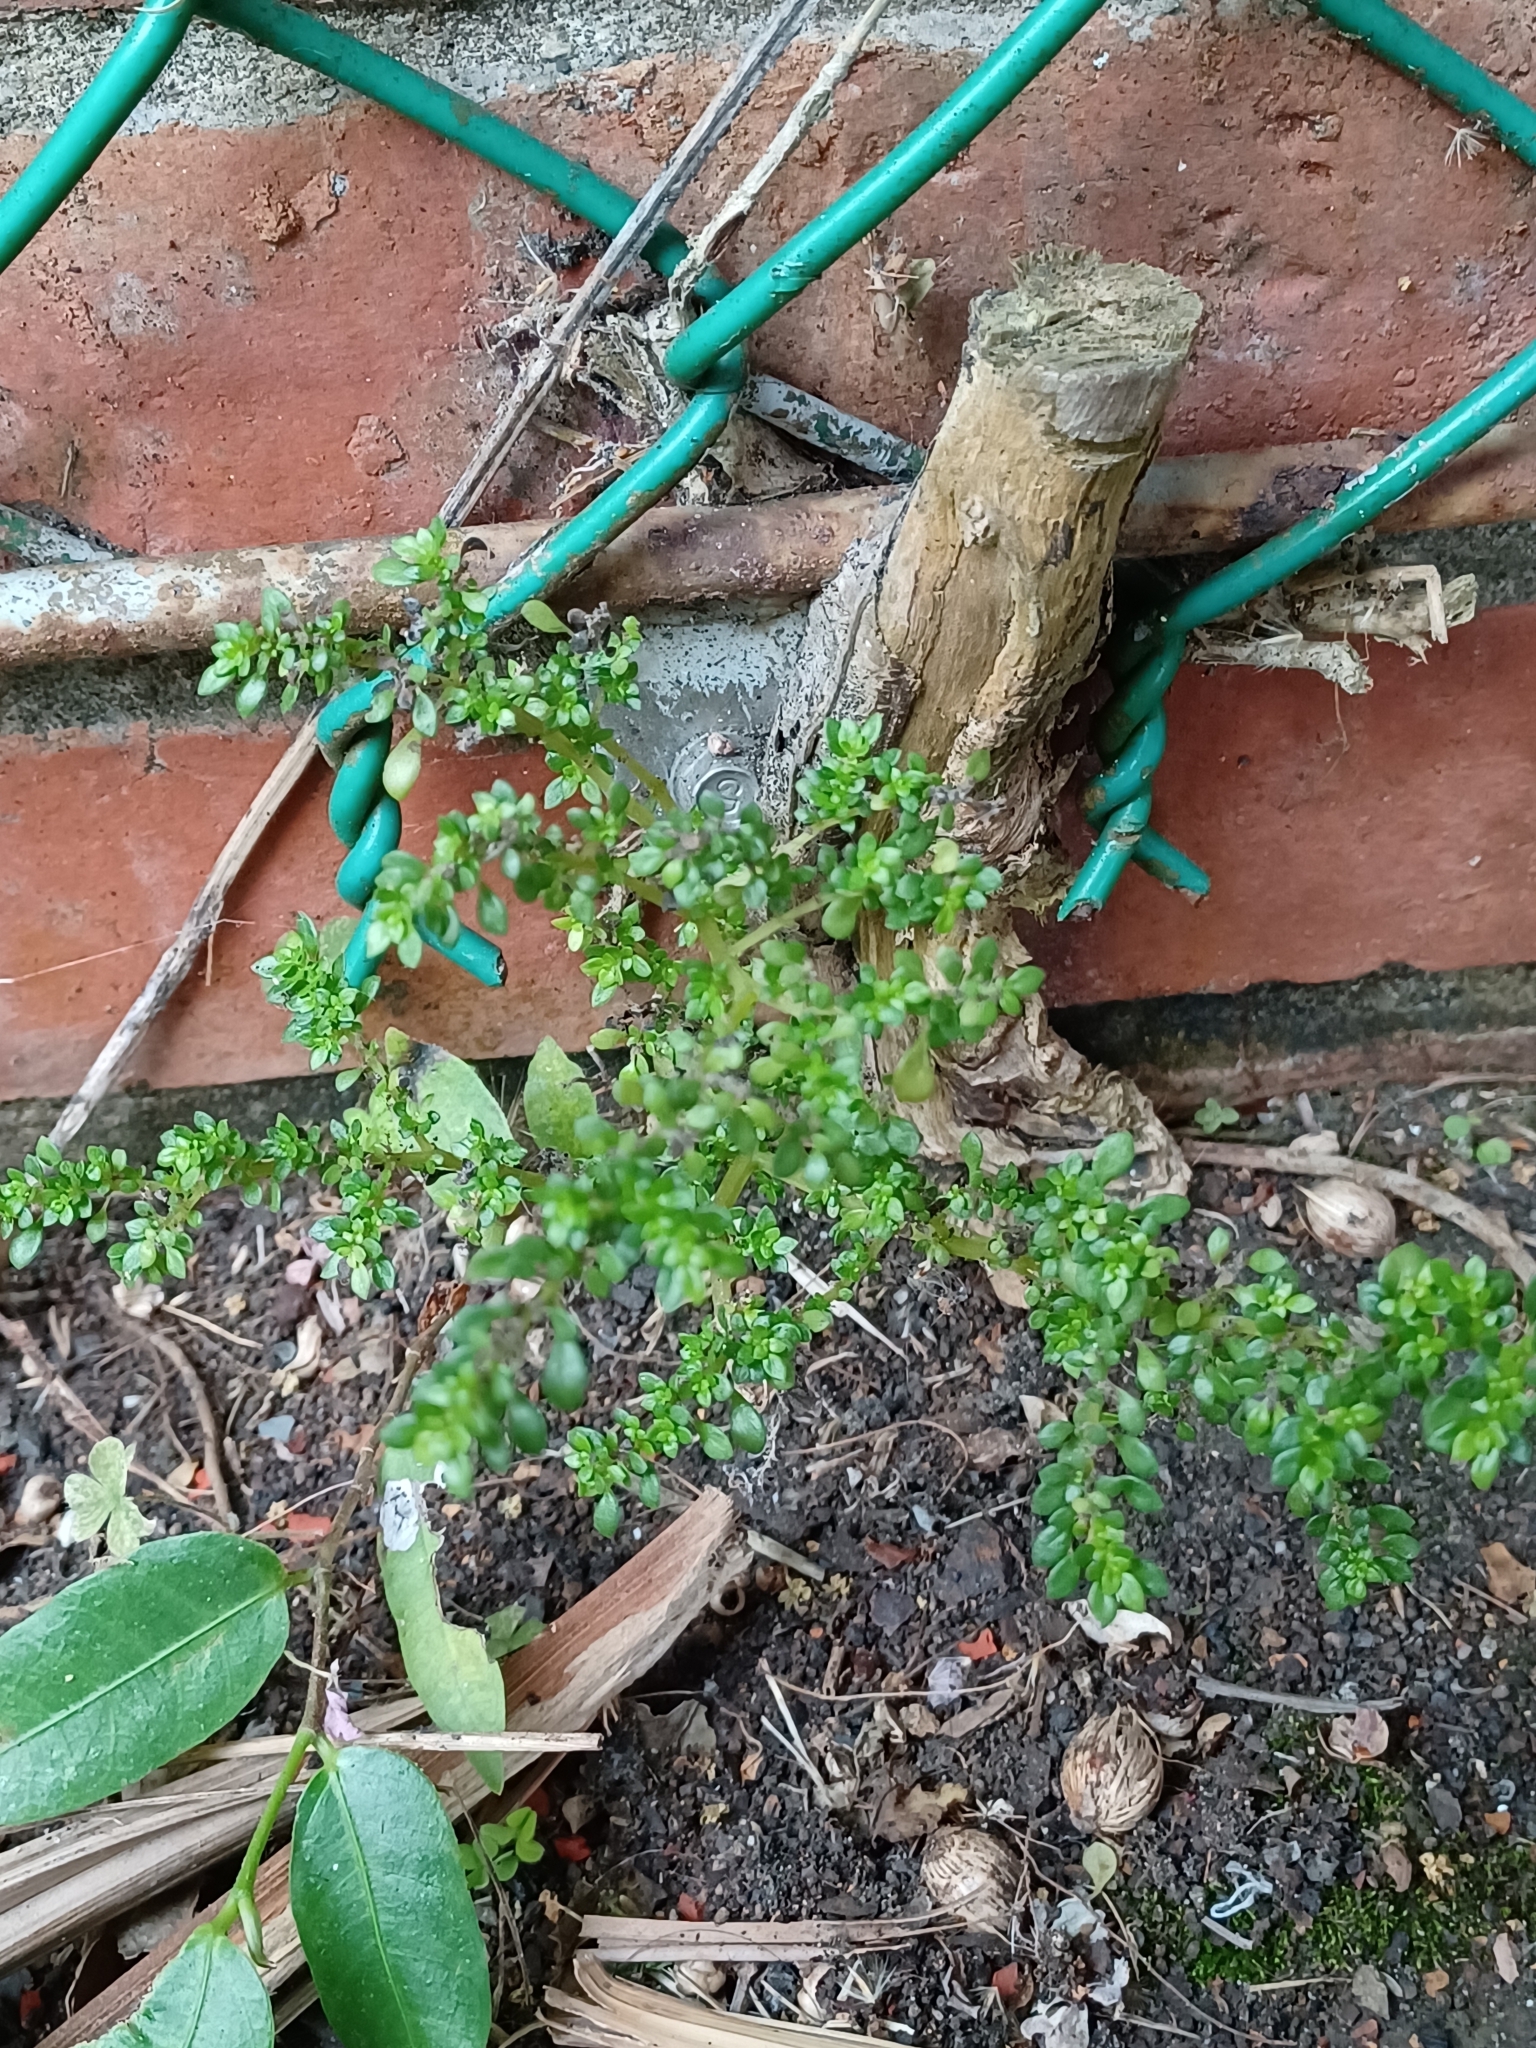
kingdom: Plantae
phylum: Tracheophyta
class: Magnoliopsida
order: Rosales
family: Urticaceae
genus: Pilea
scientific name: Pilea microphylla
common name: Artillery-plant
